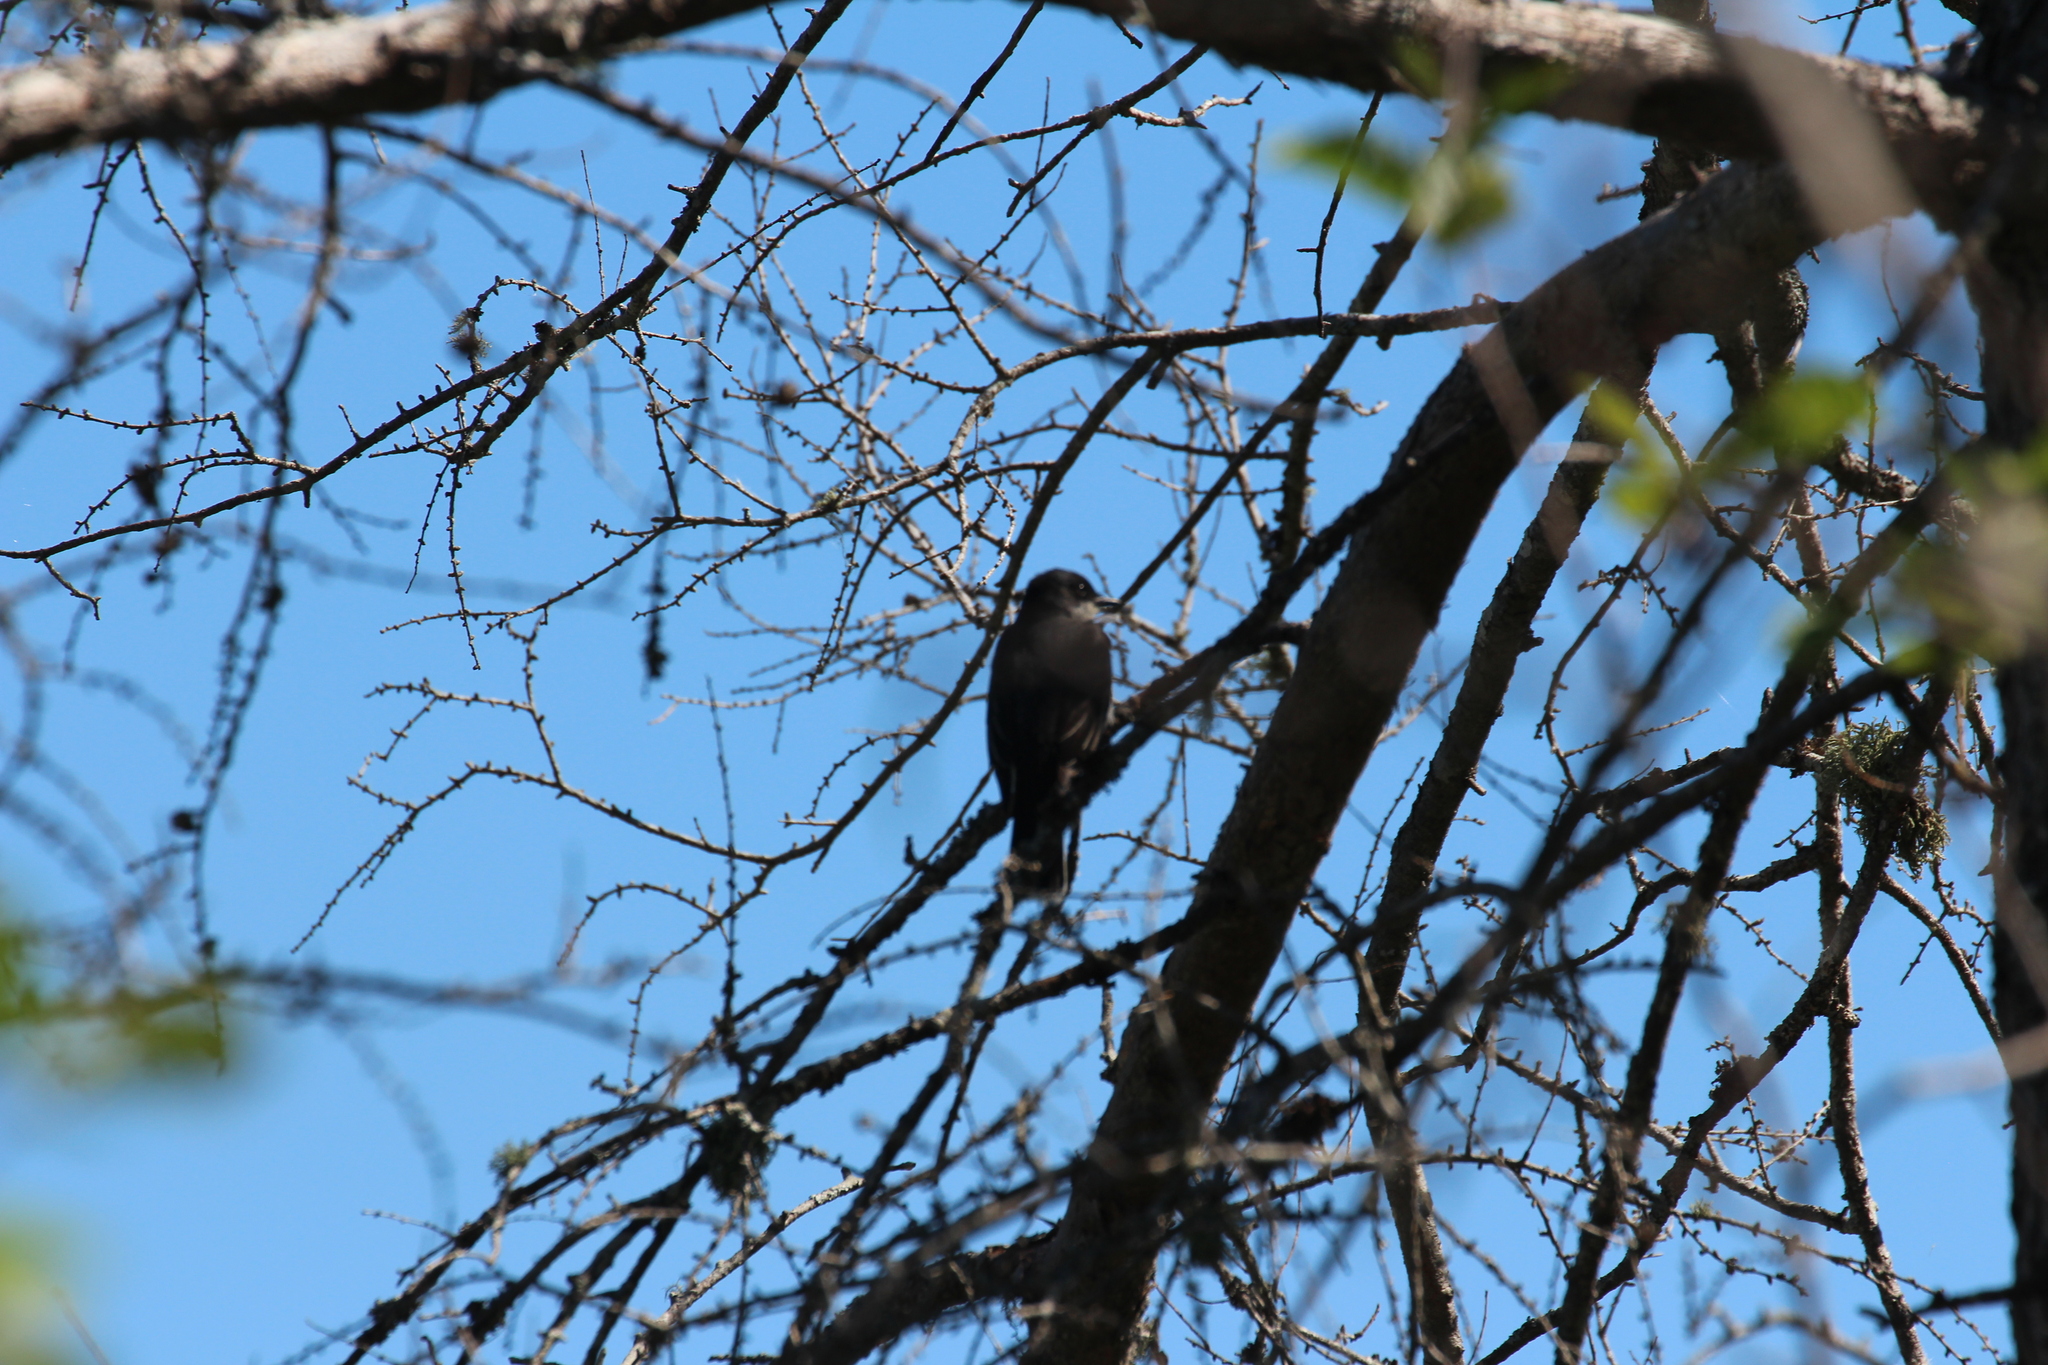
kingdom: Animalia
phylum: Chordata
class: Aves
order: Passeriformes
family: Tyrannidae
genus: Tyrannus
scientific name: Tyrannus tyrannus
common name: Eastern kingbird
